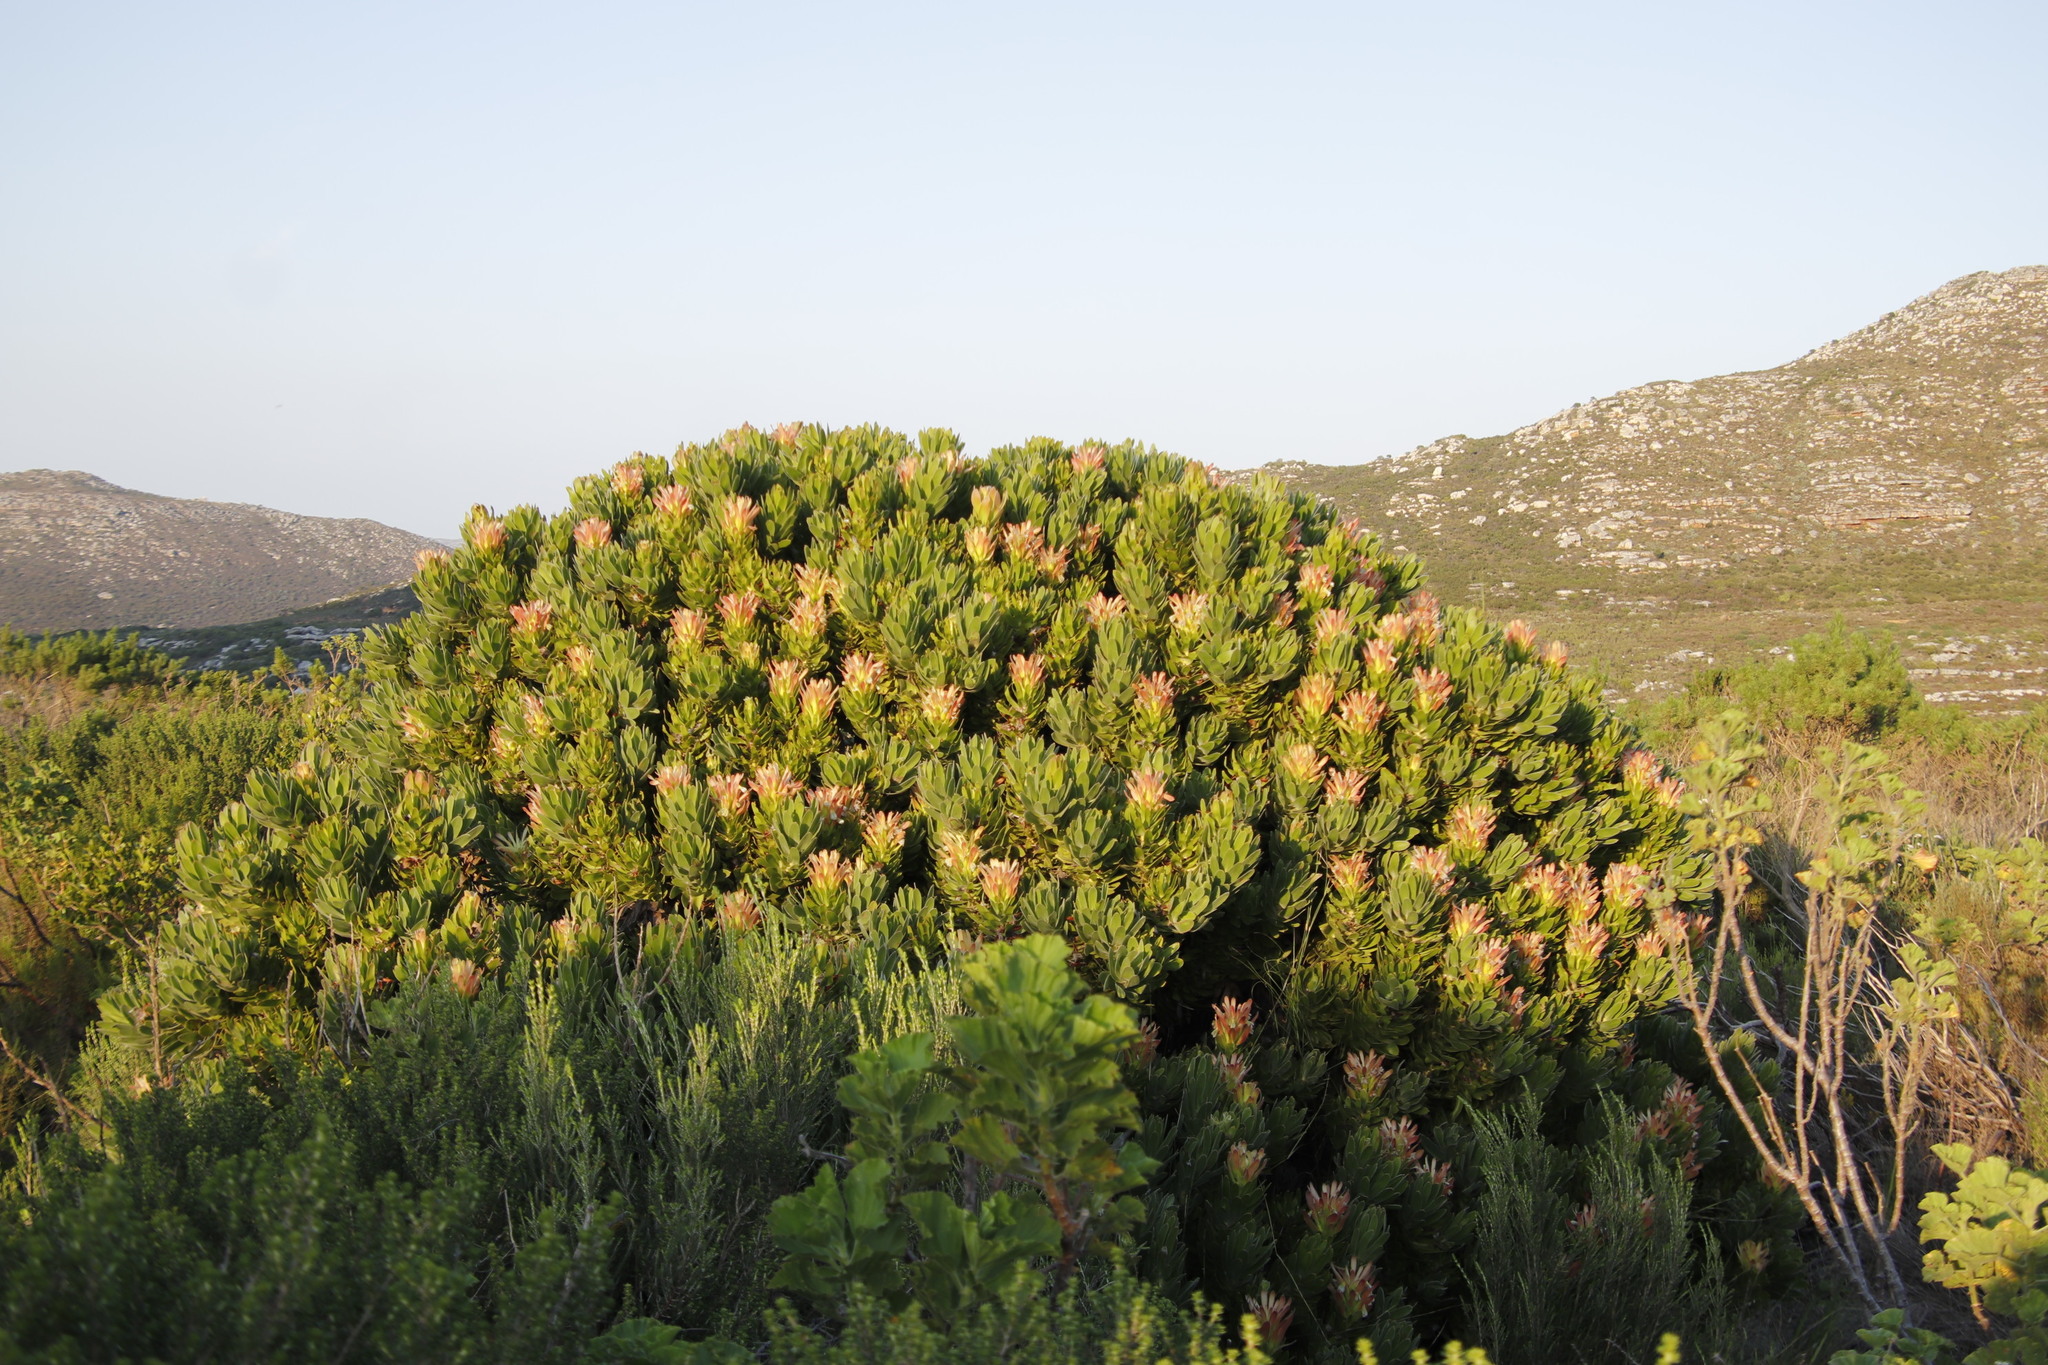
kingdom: Plantae
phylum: Tracheophyta
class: Magnoliopsida
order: Proteales
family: Proteaceae
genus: Mimetes
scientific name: Mimetes fimbriifolius
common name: Fringed bottlebrush
